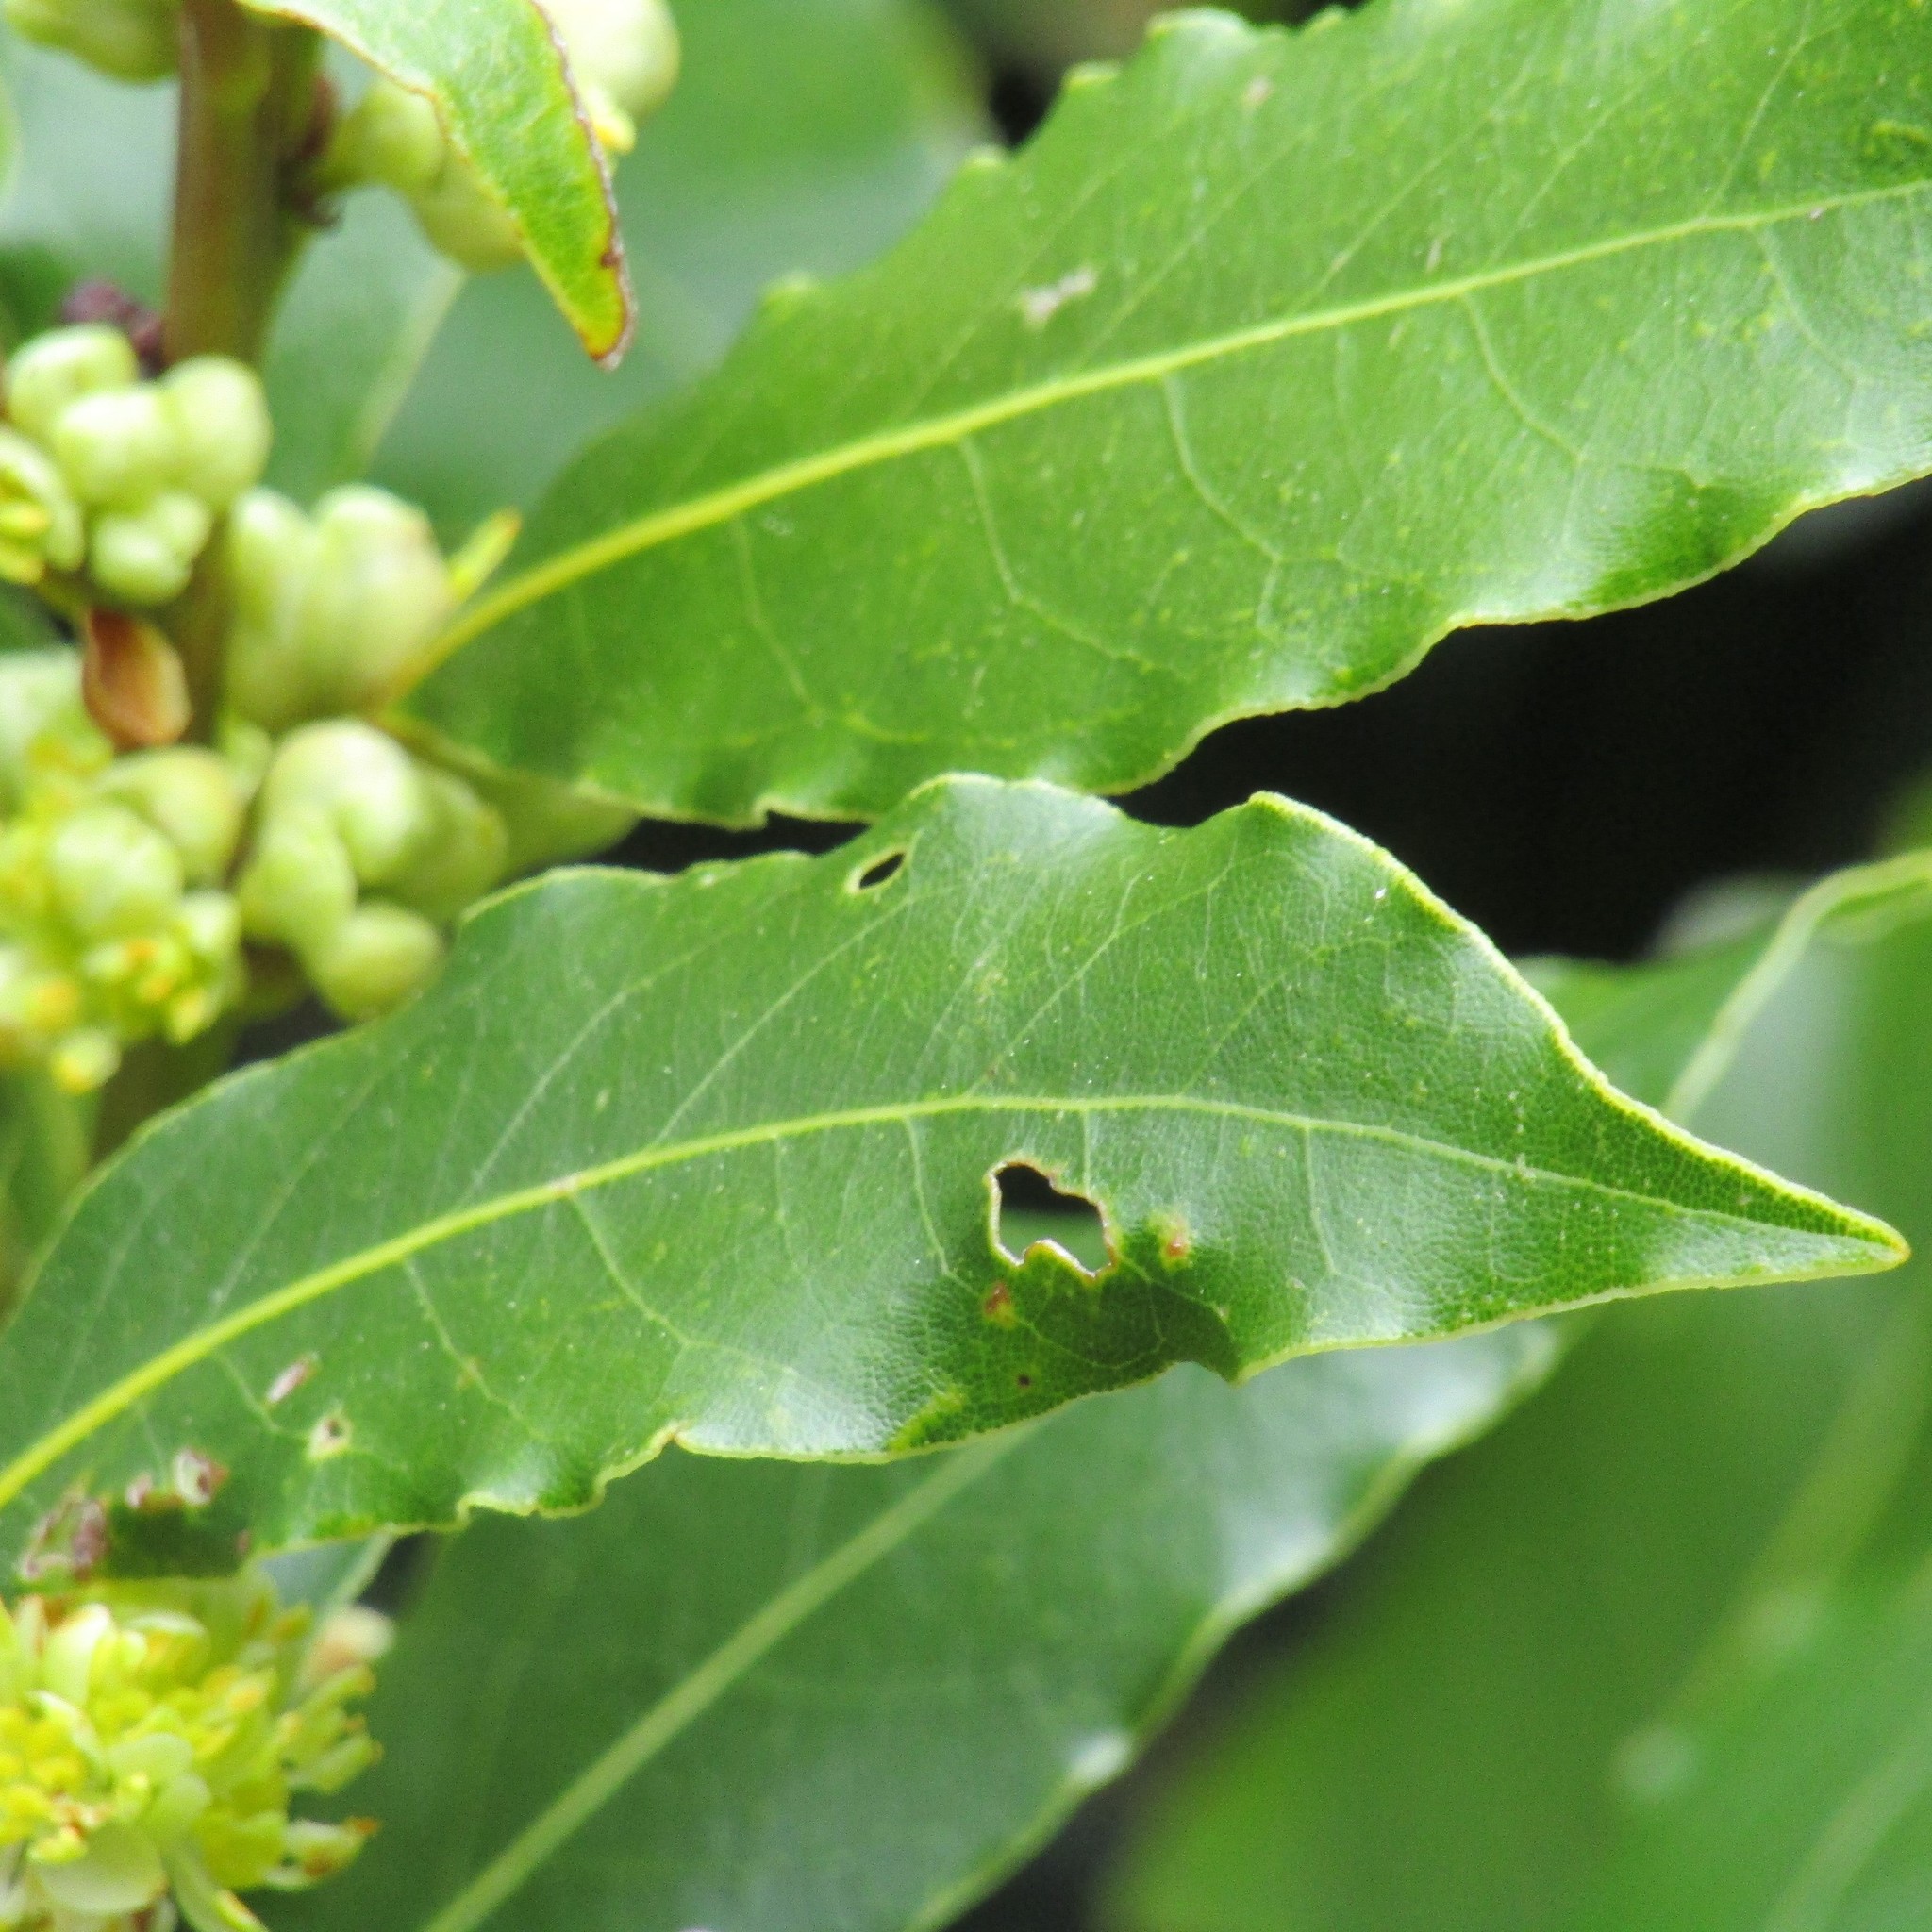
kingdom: Plantae
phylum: Tracheophyta
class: Magnoliopsida
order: Laurales
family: Lauraceae
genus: Laurus
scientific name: Laurus nobilis
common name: Bay
